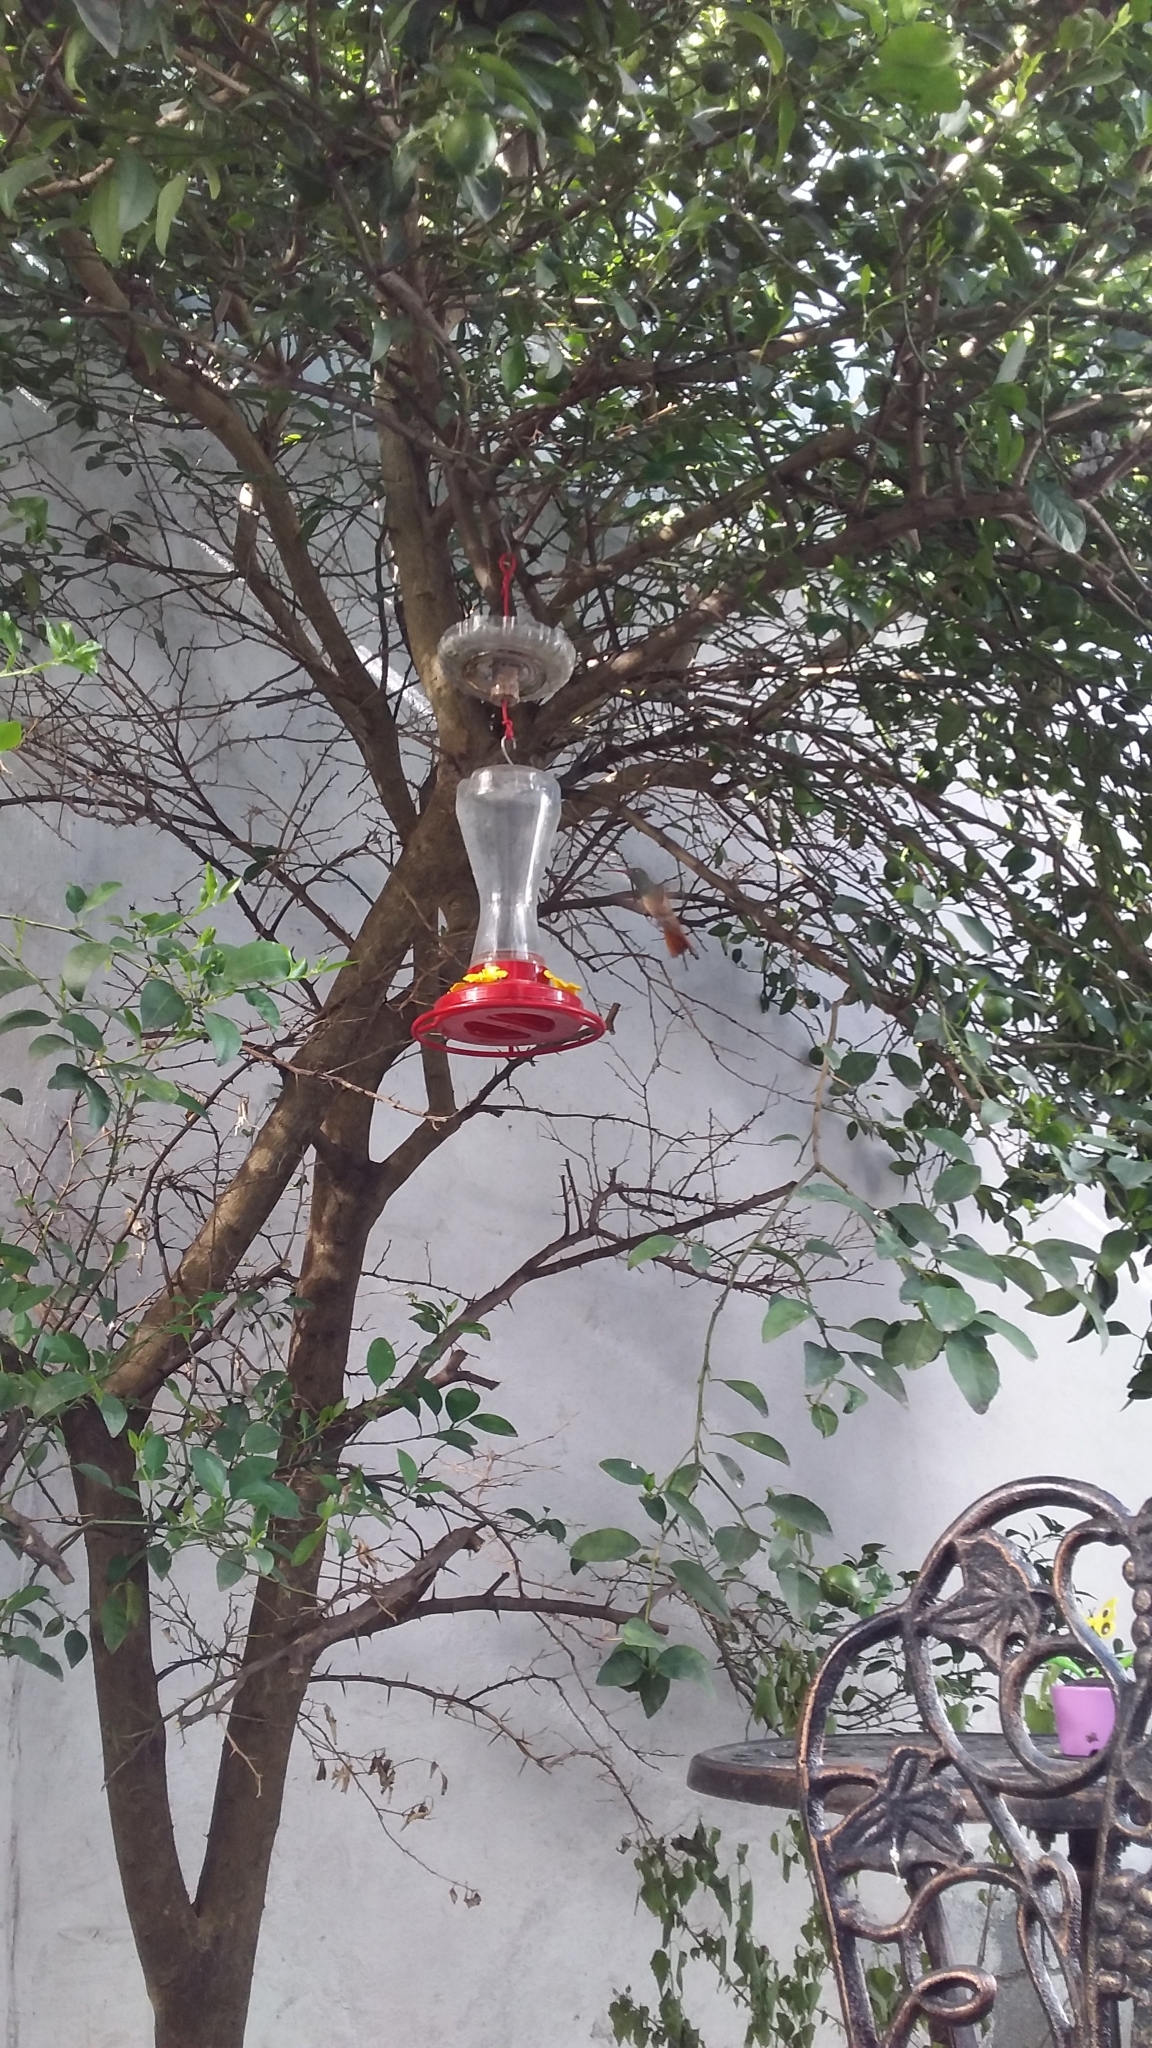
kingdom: Animalia
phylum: Chordata
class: Aves
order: Apodiformes
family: Trochilidae
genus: Amazilia
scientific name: Amazilia yucatanensis
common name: Buff-bellied hummingbird
